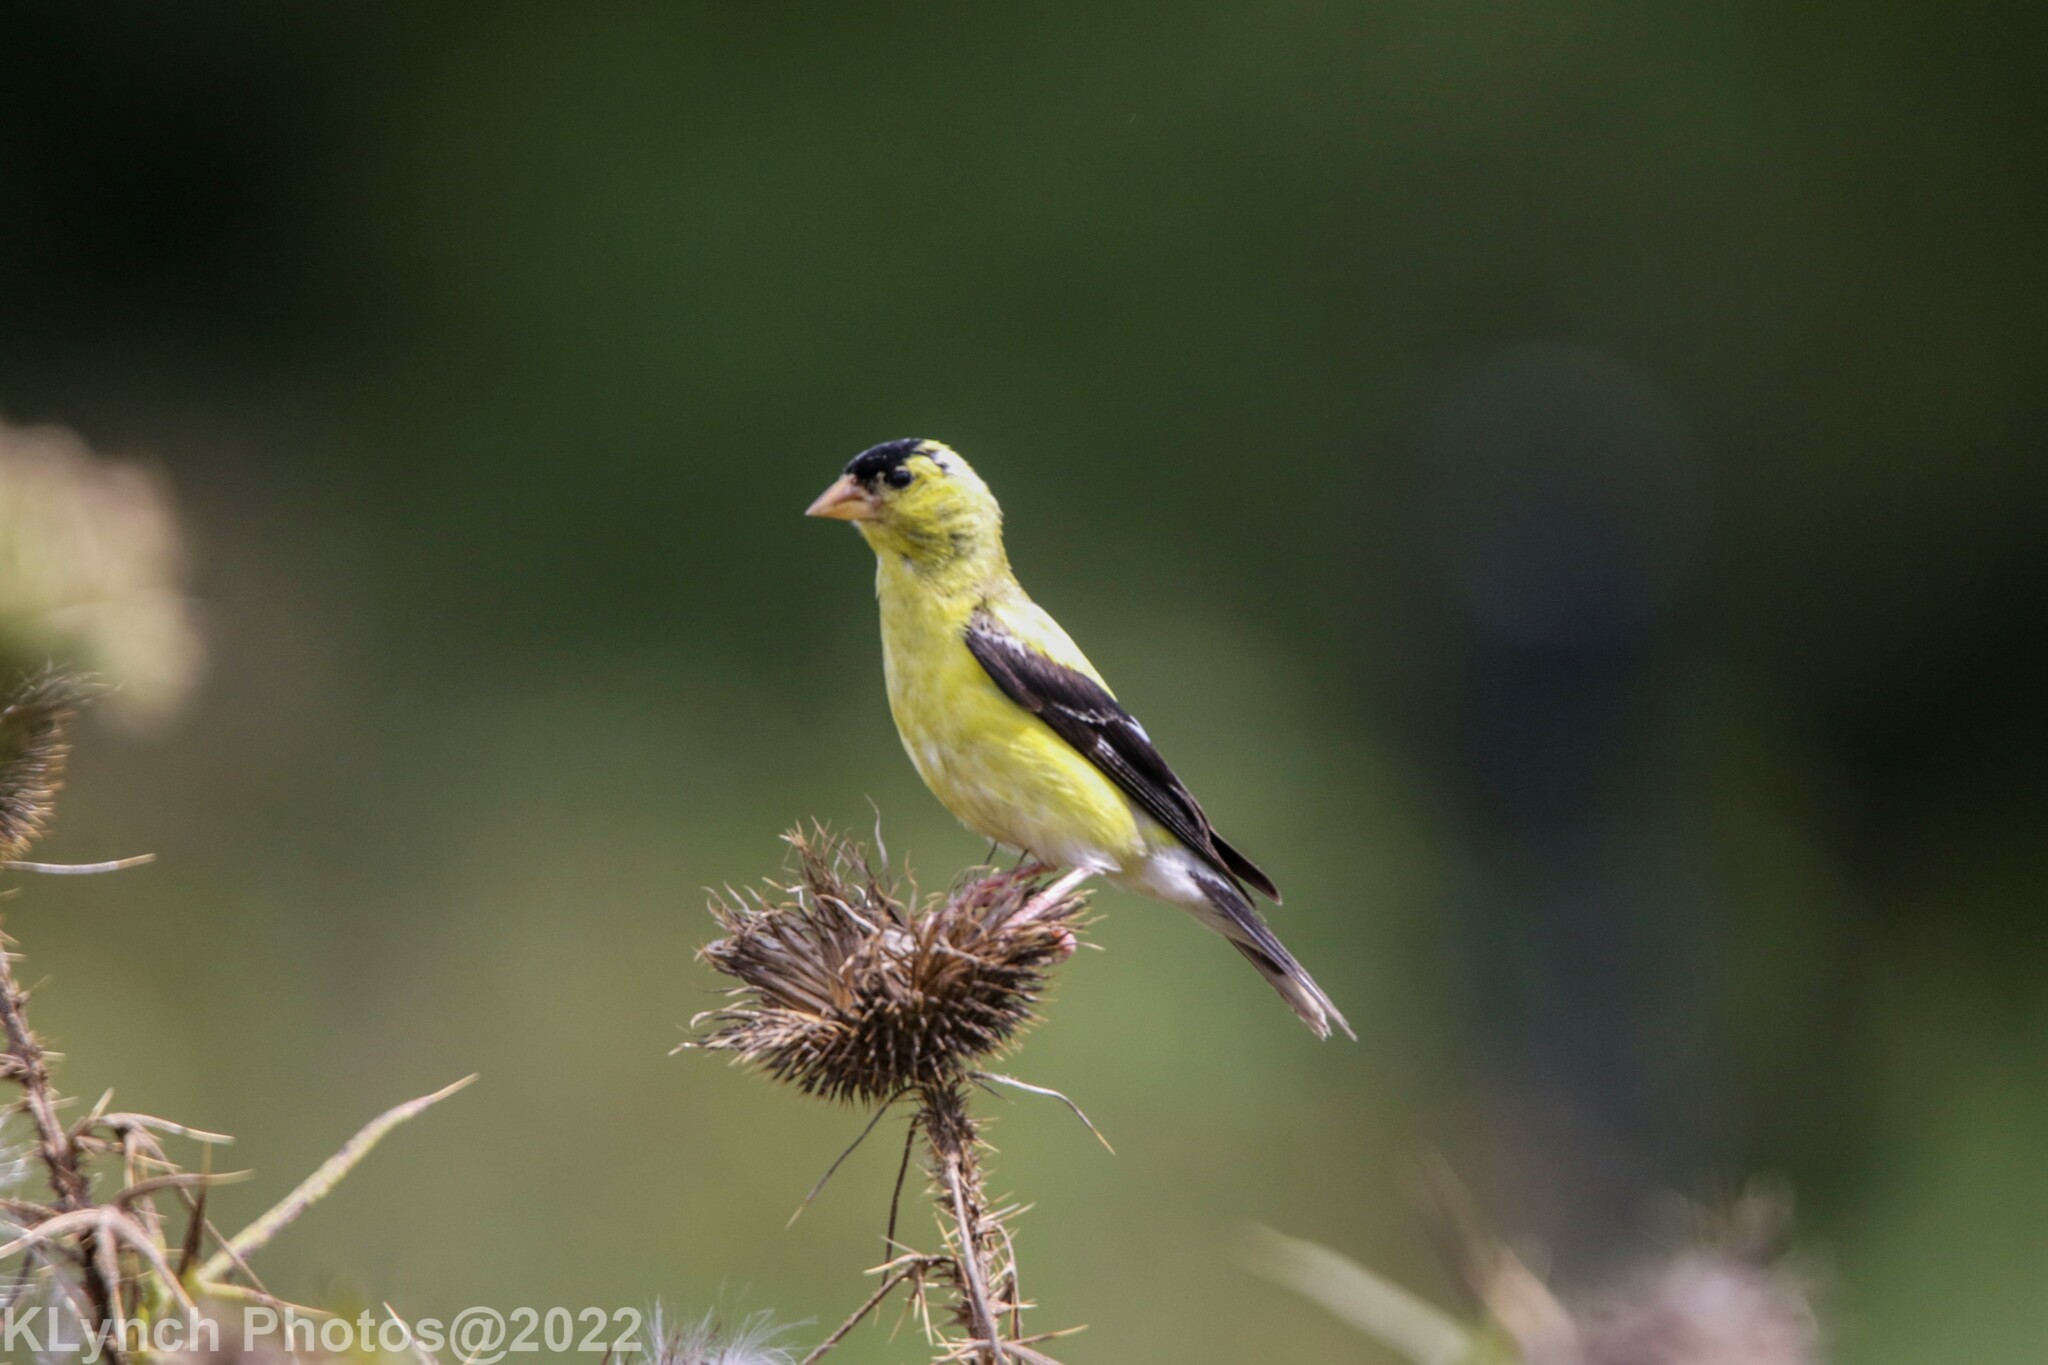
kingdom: Animalia
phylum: Chordata
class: Aves
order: Passeriformes
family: Fringillidae
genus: Spinus
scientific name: Spinus tristis
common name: American goldfinch
